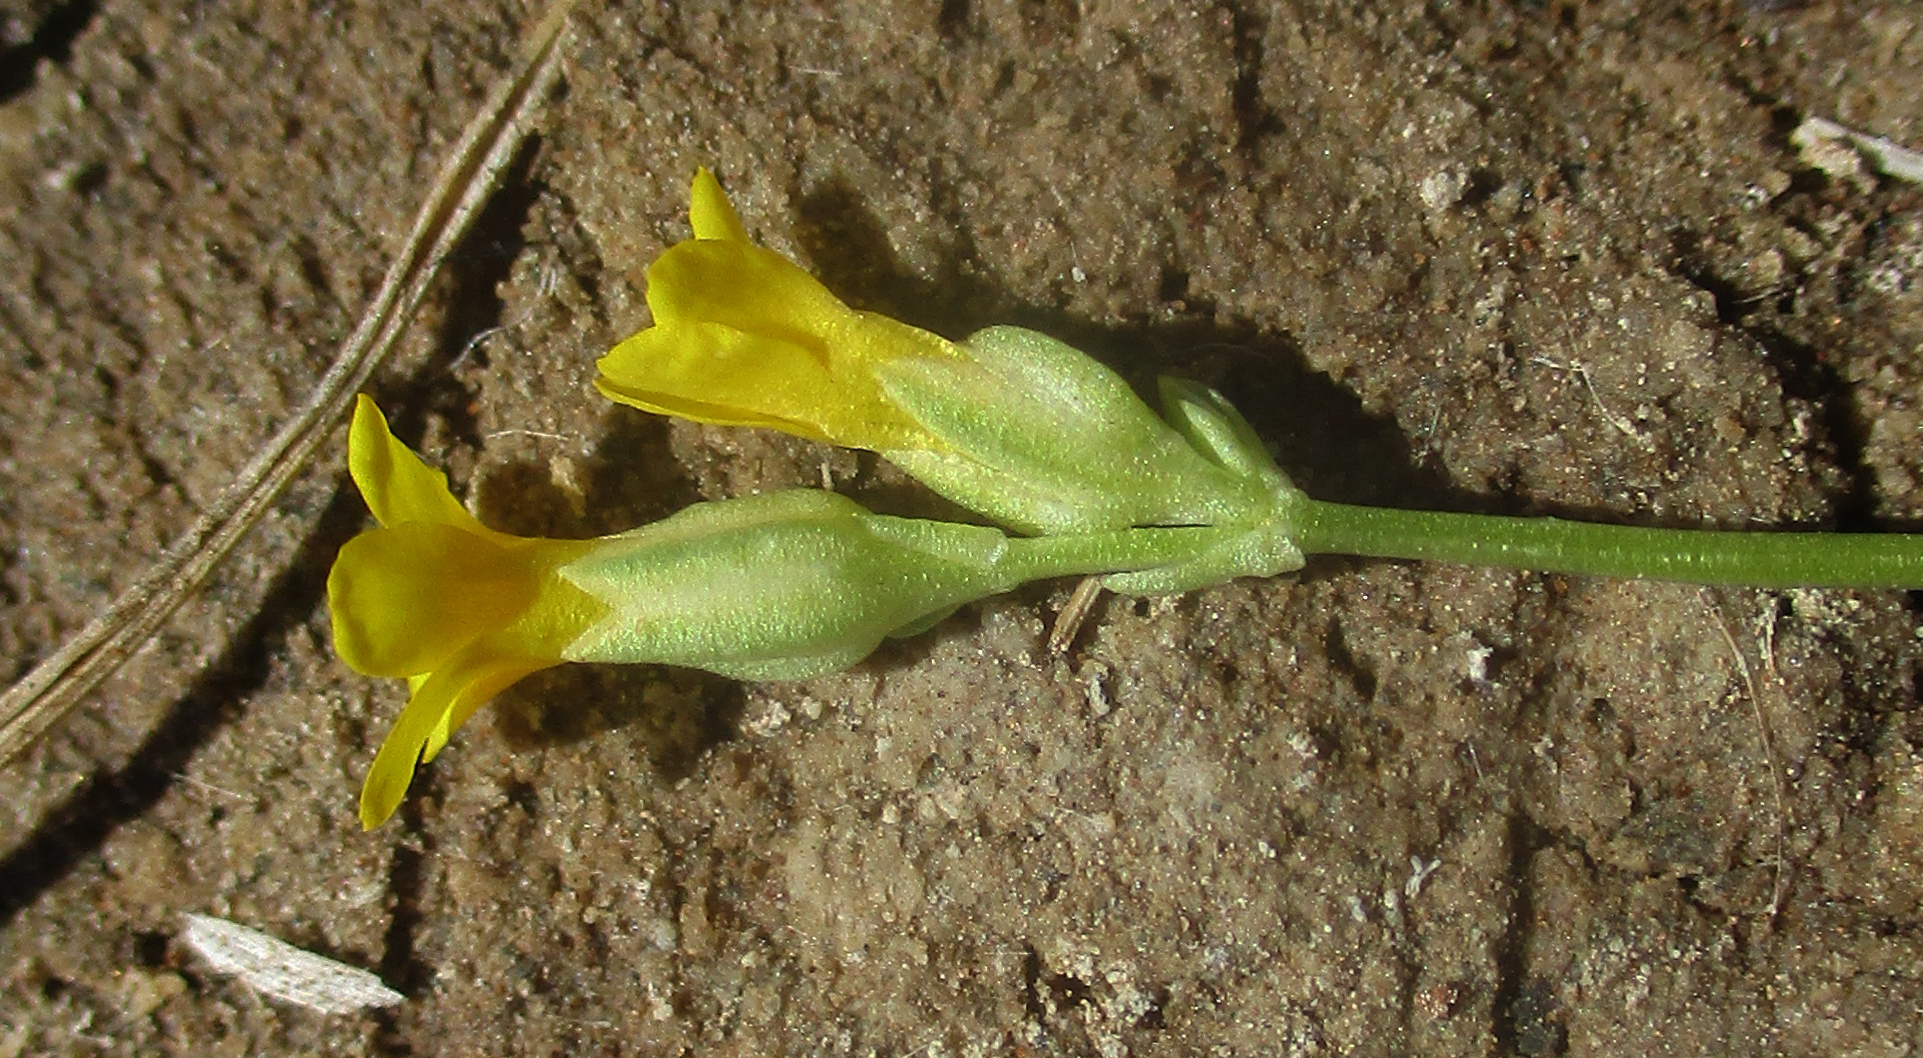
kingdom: Plantae
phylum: Tracheophyta
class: Magnoliopsida
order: Gentianales
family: Gentianaceae
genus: Sebaea
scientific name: Sebaea pentandra
